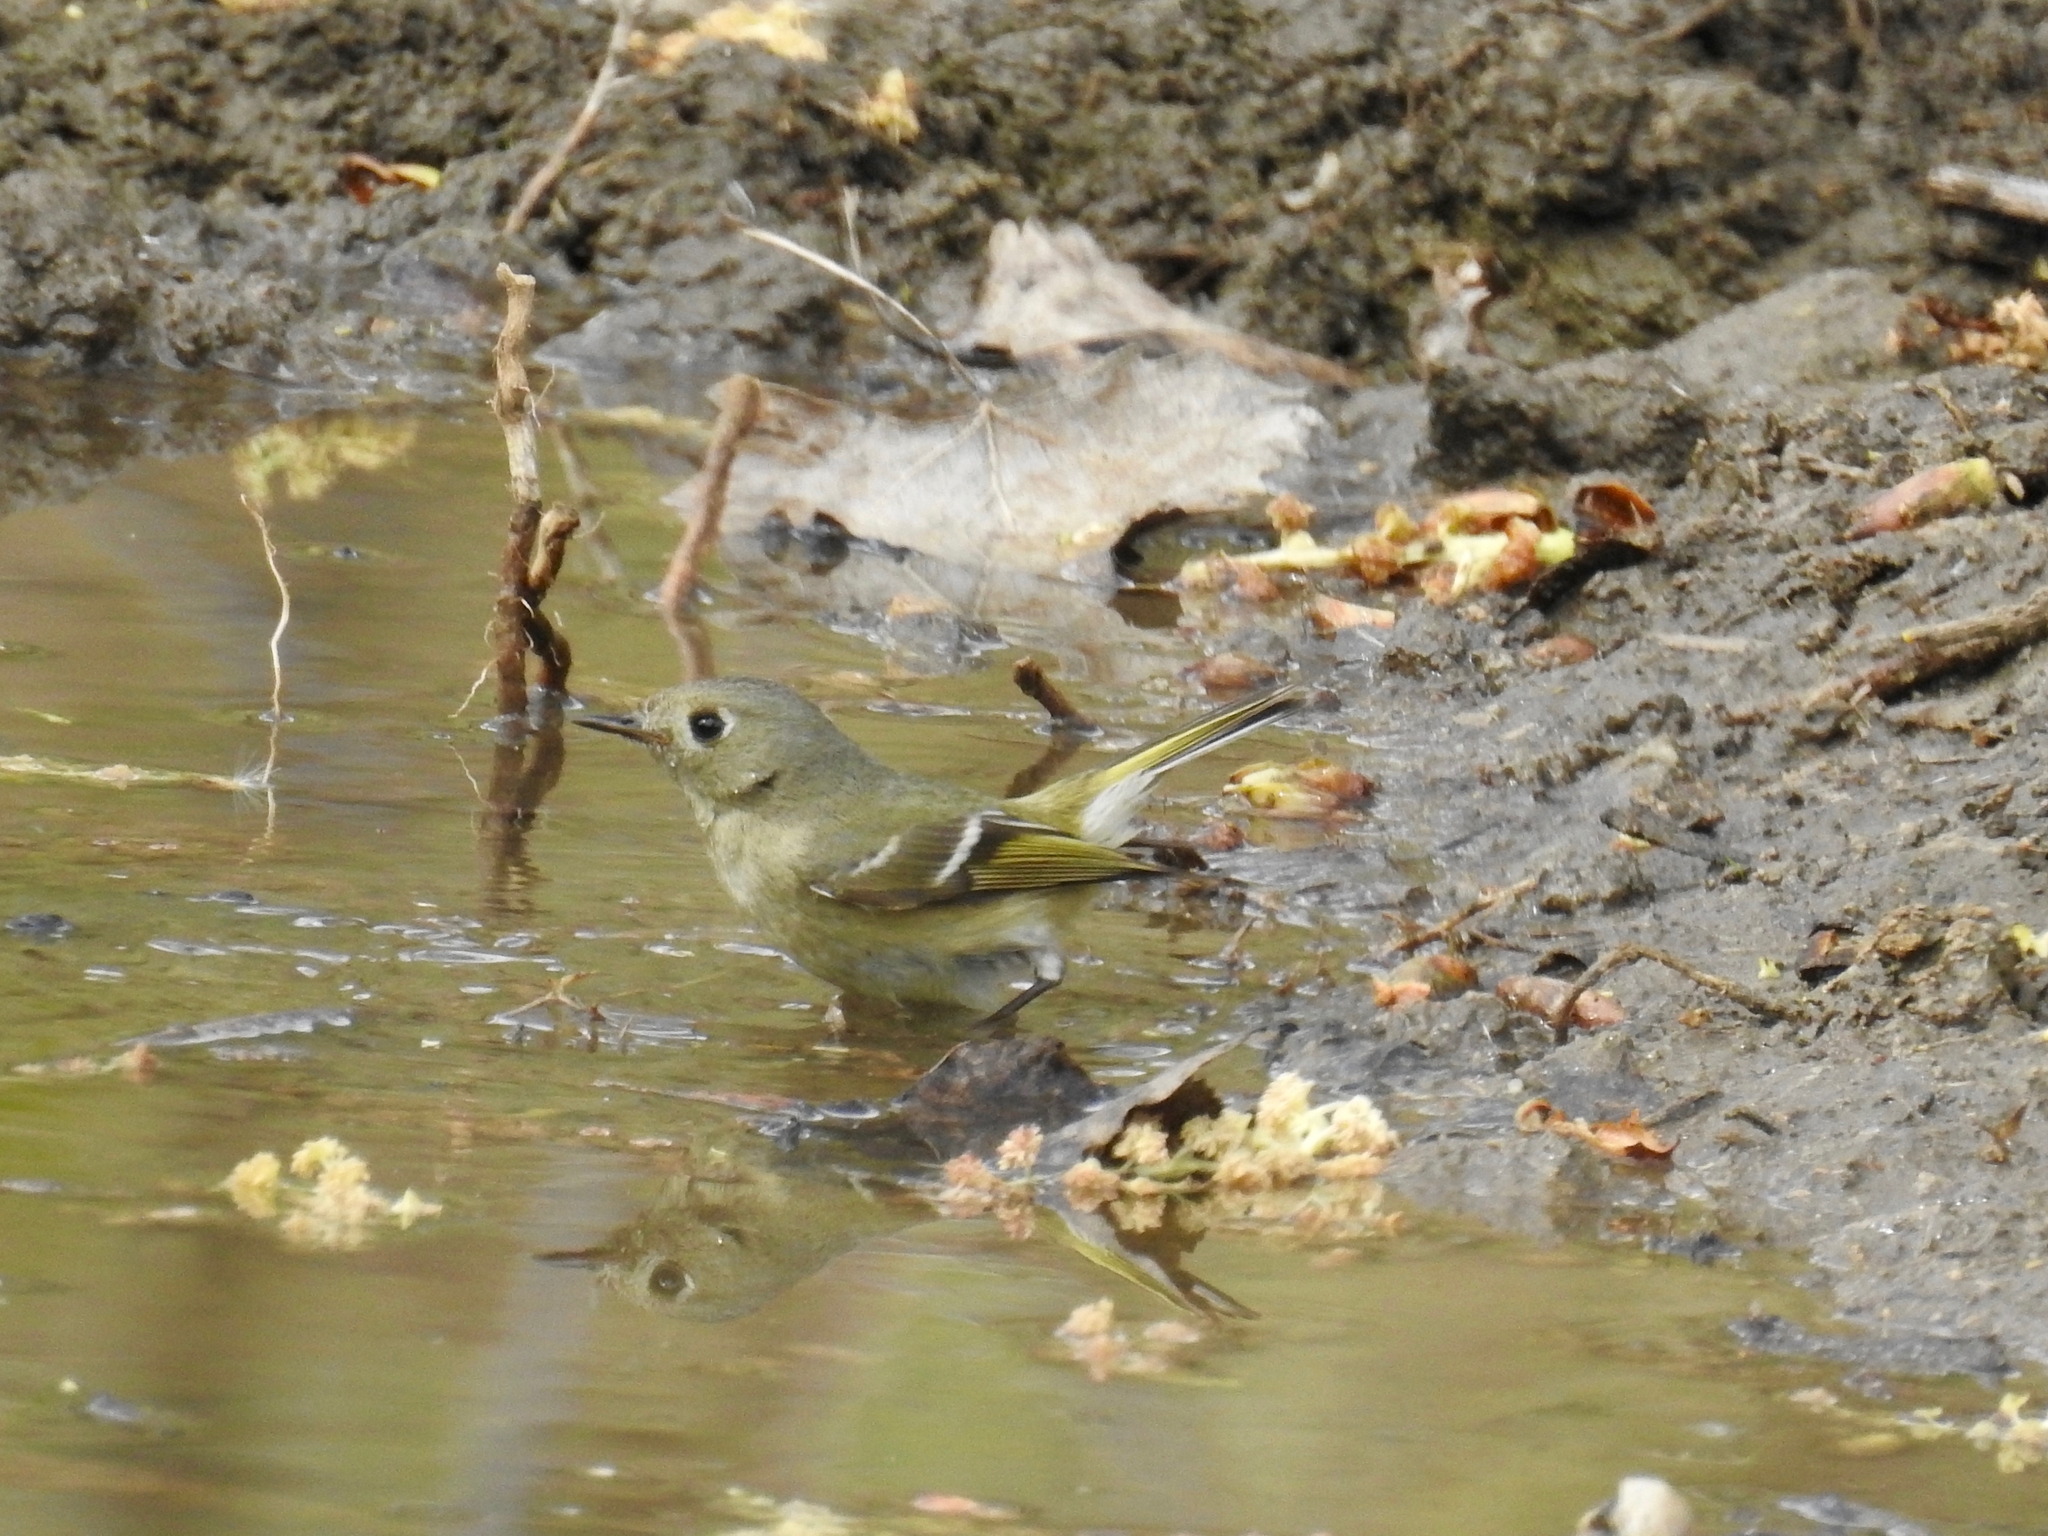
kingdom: Animalia
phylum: Chordata
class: Aves
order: Passeriformes
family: Regulidae
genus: Regulus
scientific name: Regulus calendula
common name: Ruby-crowned kinglet
